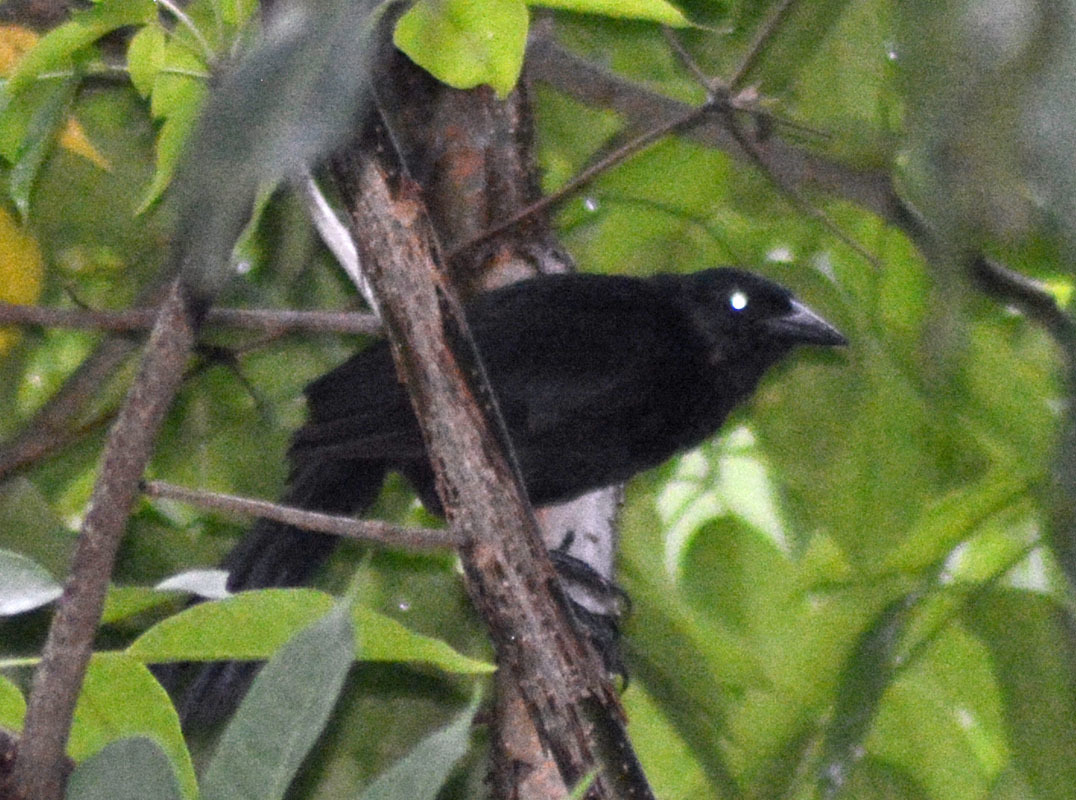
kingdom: Animalia
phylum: Chordata
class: Aves
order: Passeriformes
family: Icteridae
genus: Dives
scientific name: Dives dives
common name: Melodious blackbird
